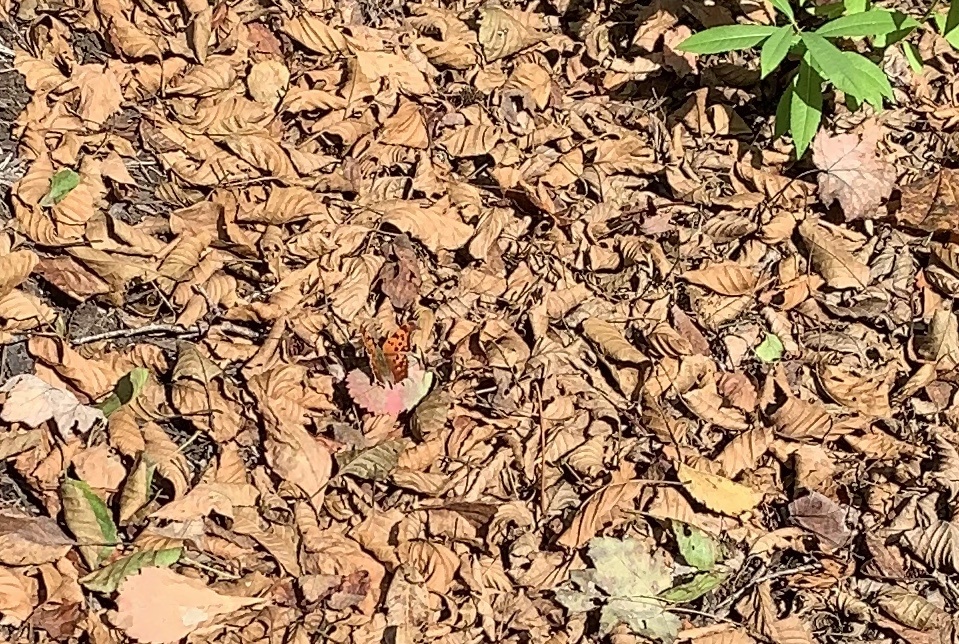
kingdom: Animalia
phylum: Arthropoda
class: Insecta
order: Lepidoptera
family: Nymphalidae
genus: Polygonia
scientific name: Polygonia interrogationis
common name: Question mark
